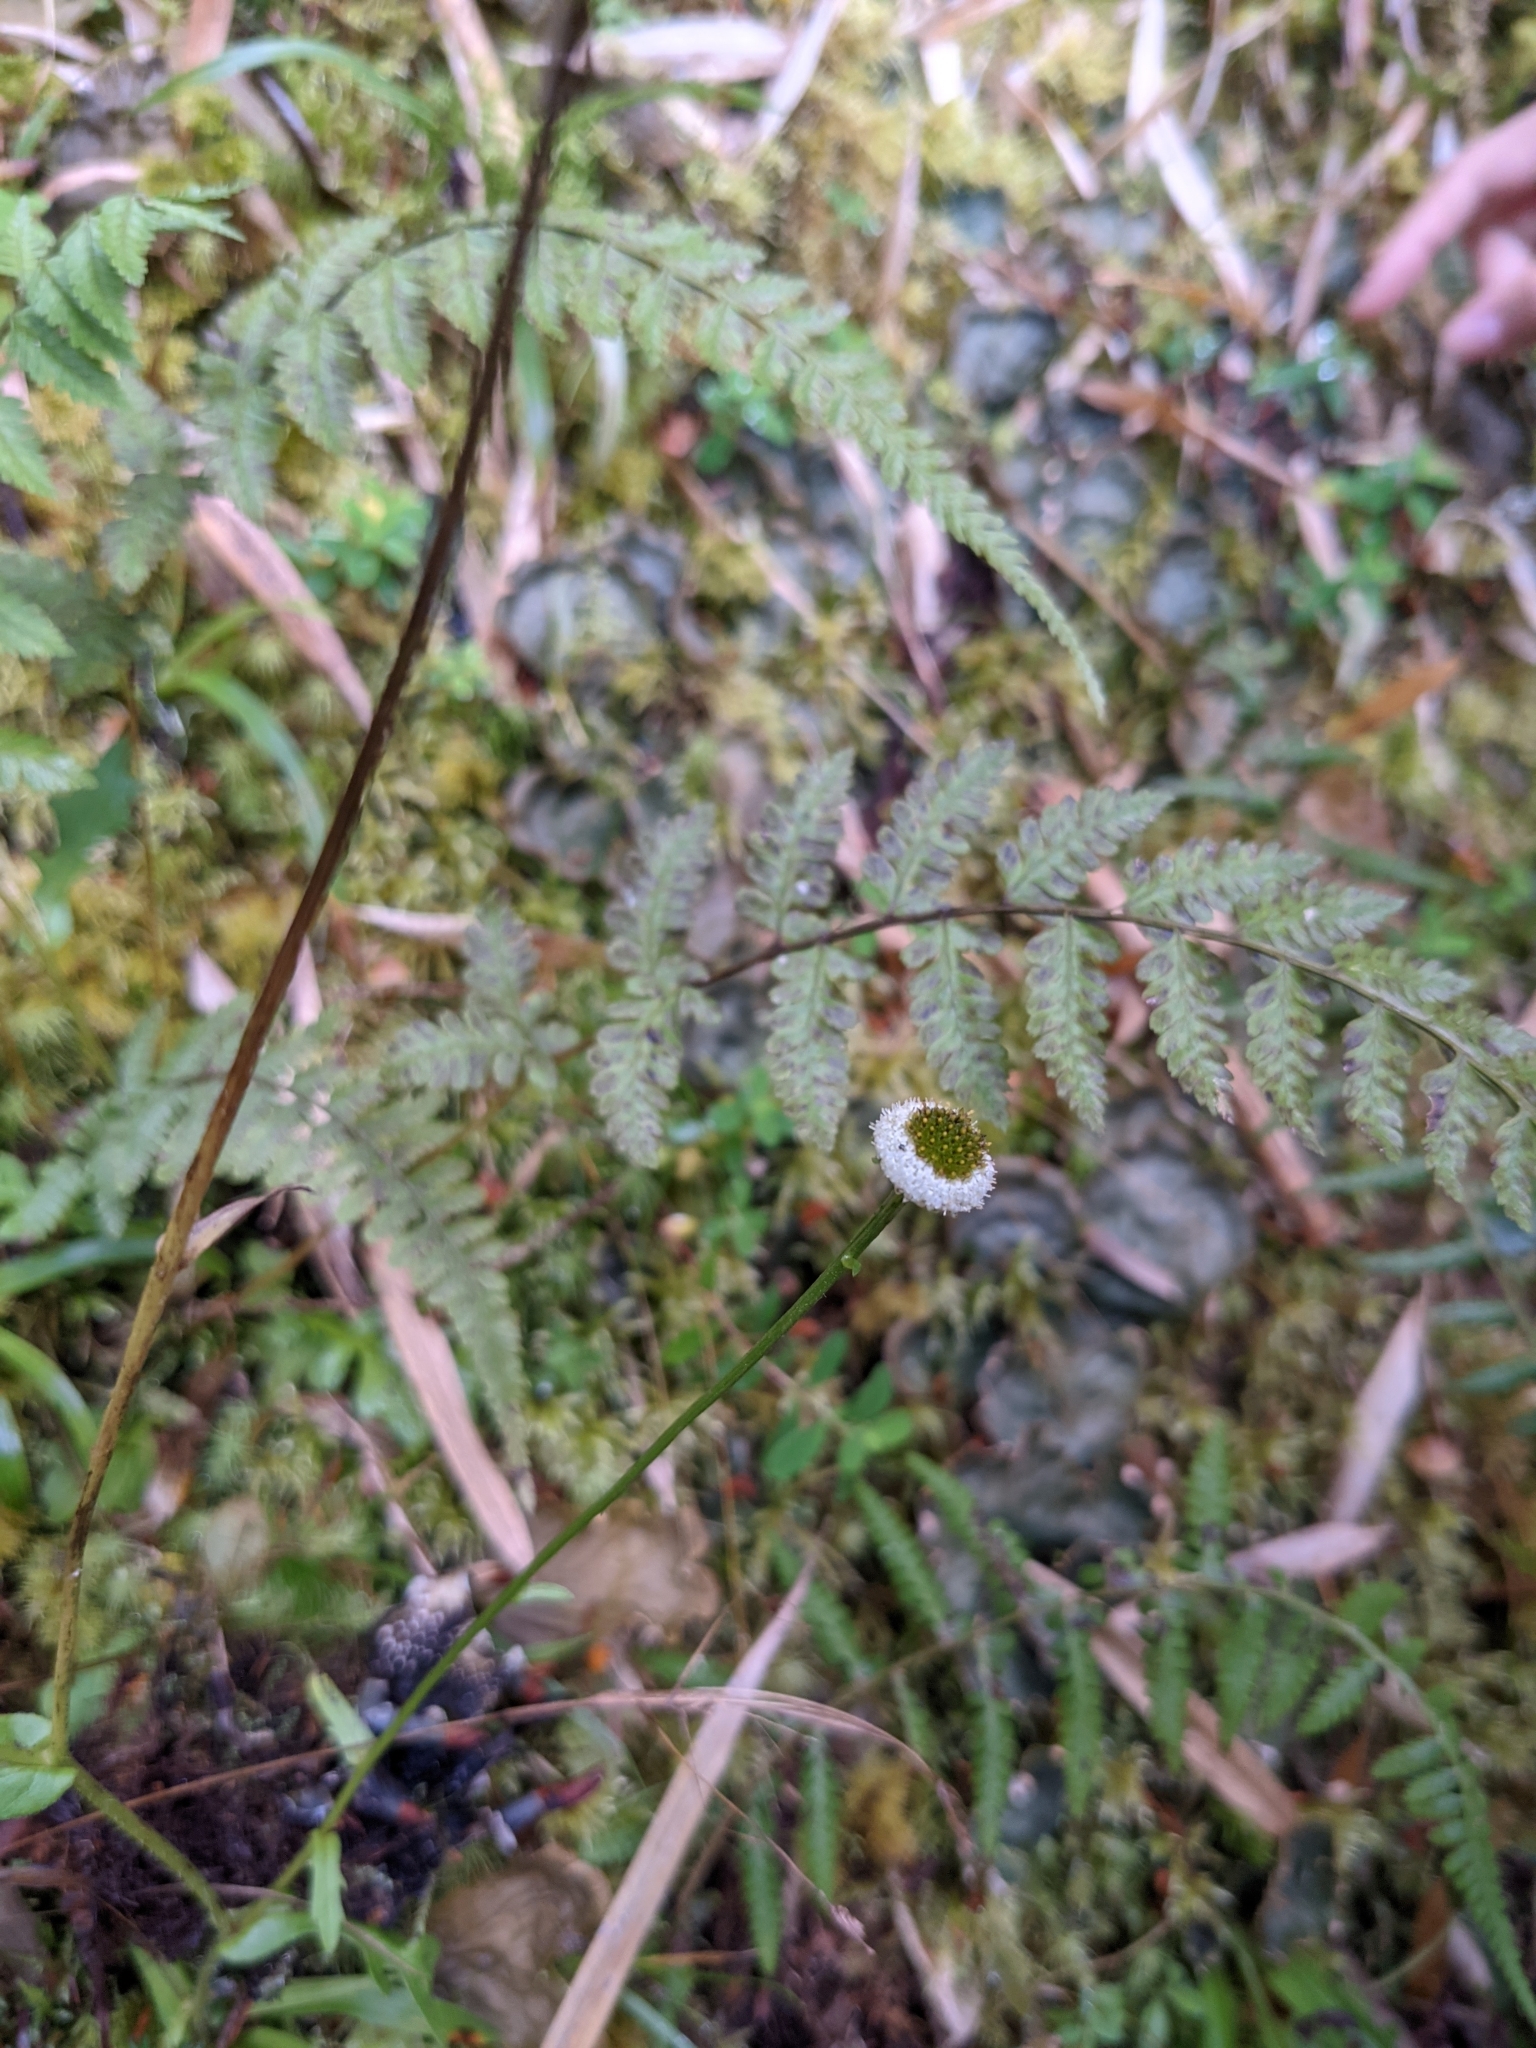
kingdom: Plantae
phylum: Tracheophyta
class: Magnoliopsida
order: Asterales
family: Asteraceae
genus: Myriactis
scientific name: Myriactis humilis
